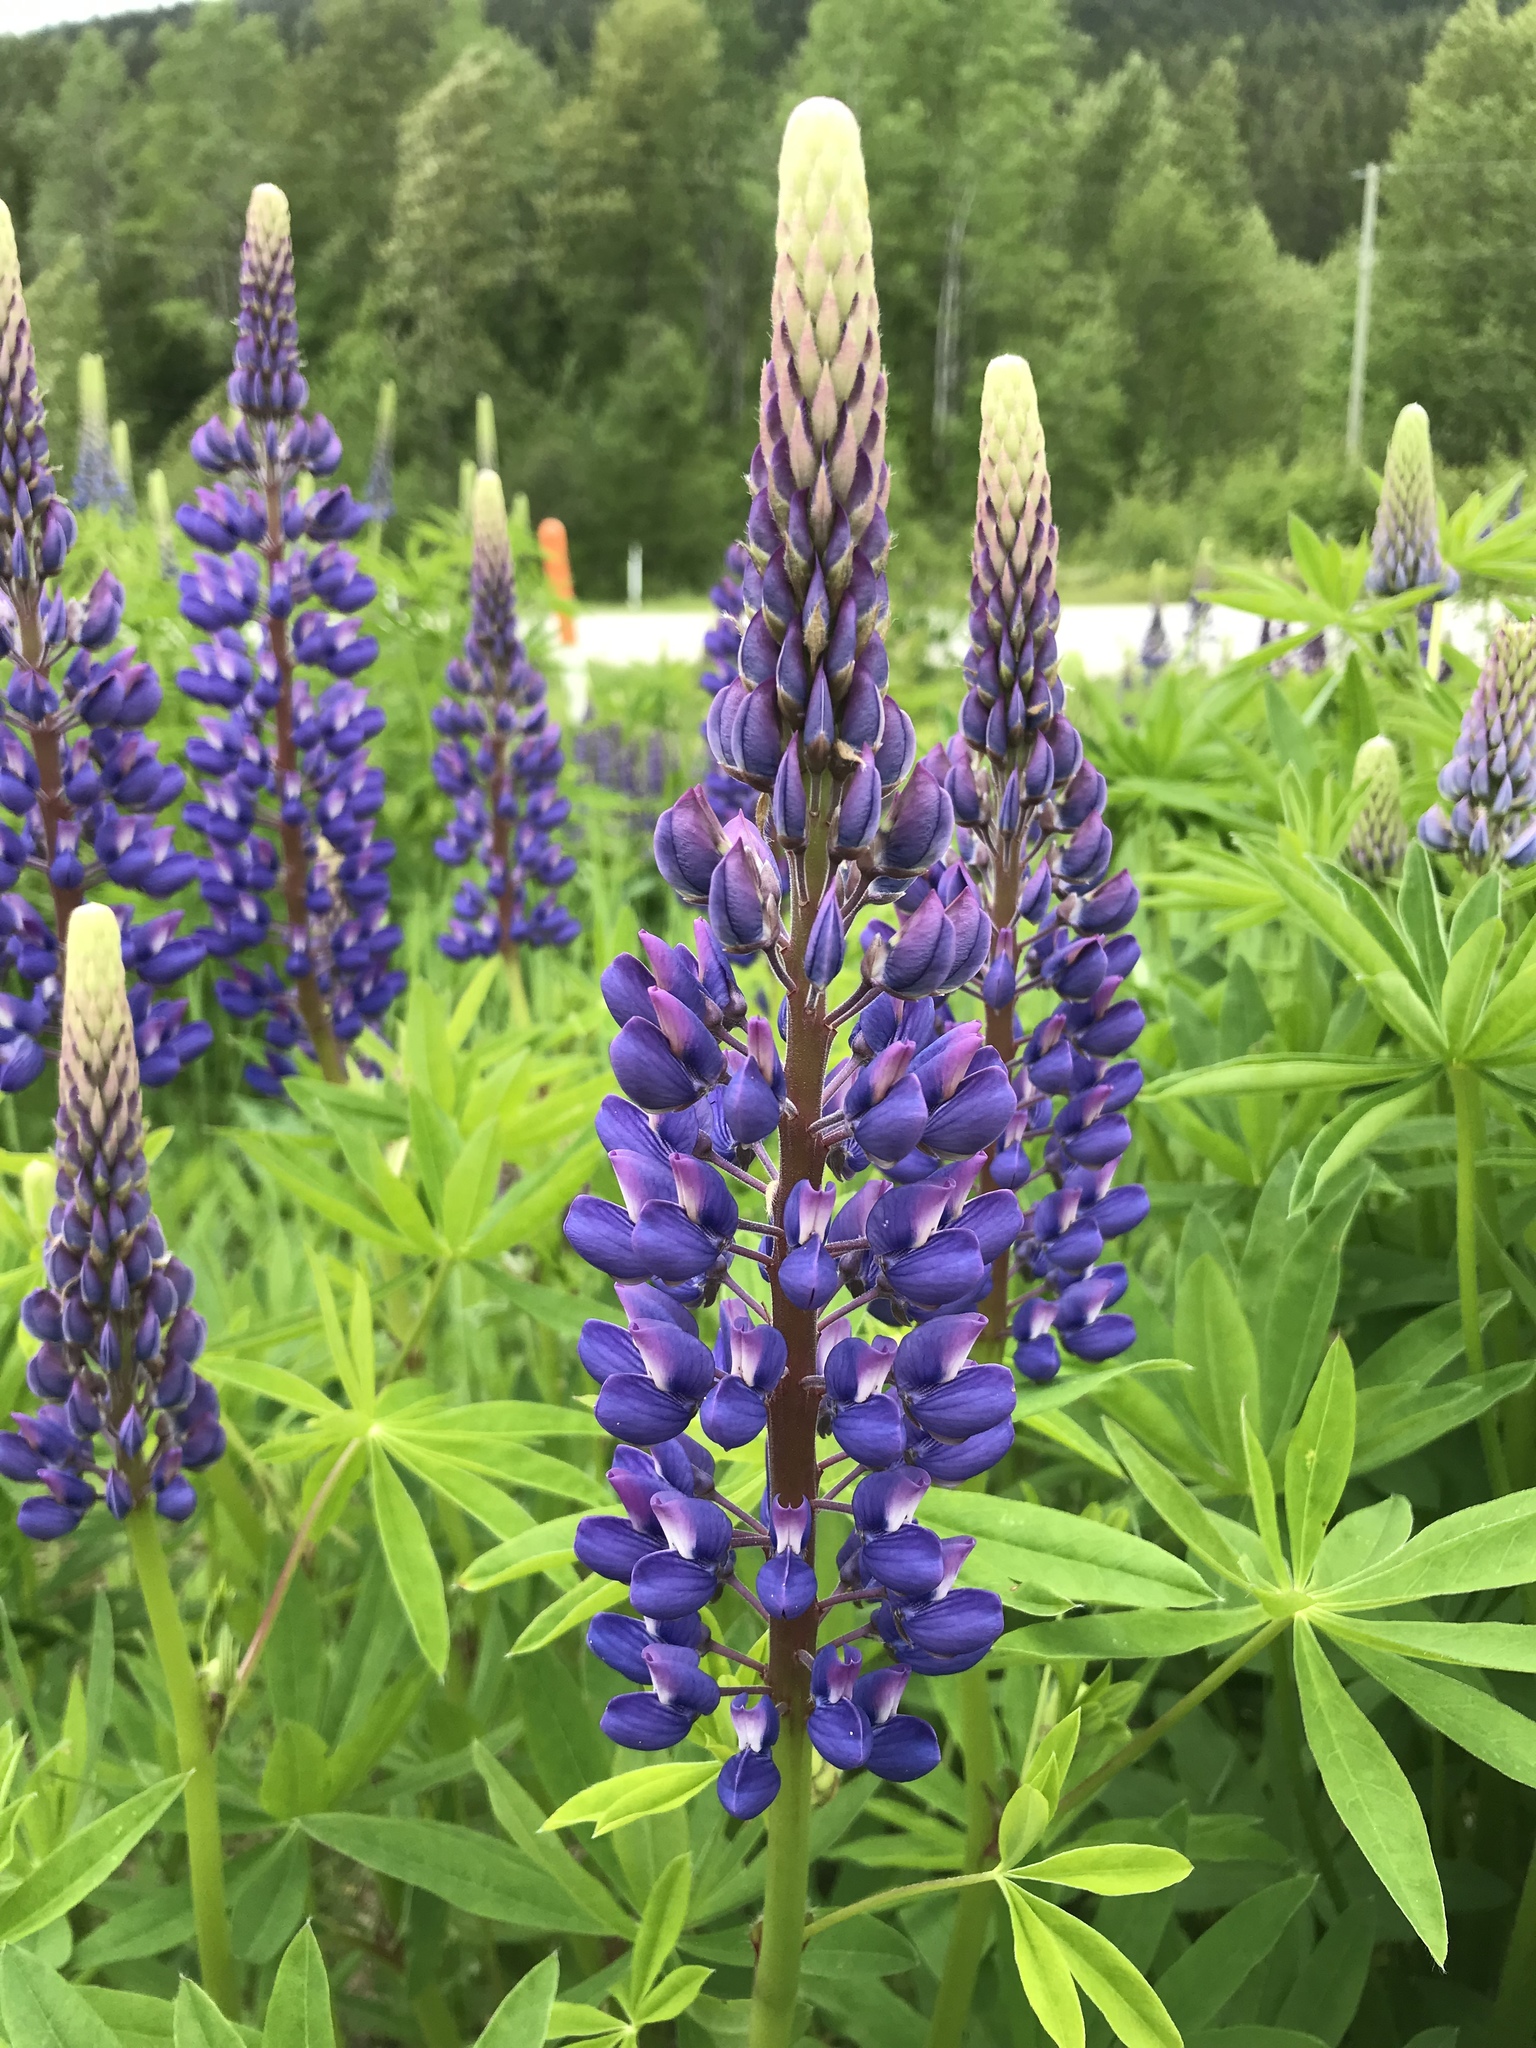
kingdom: Plantae
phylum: Tracheophyta
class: Magnoliopsida
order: Fabales
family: Fabaceae
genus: Lupinus
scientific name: Lupinus polyphyllus
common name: Garden lupin
